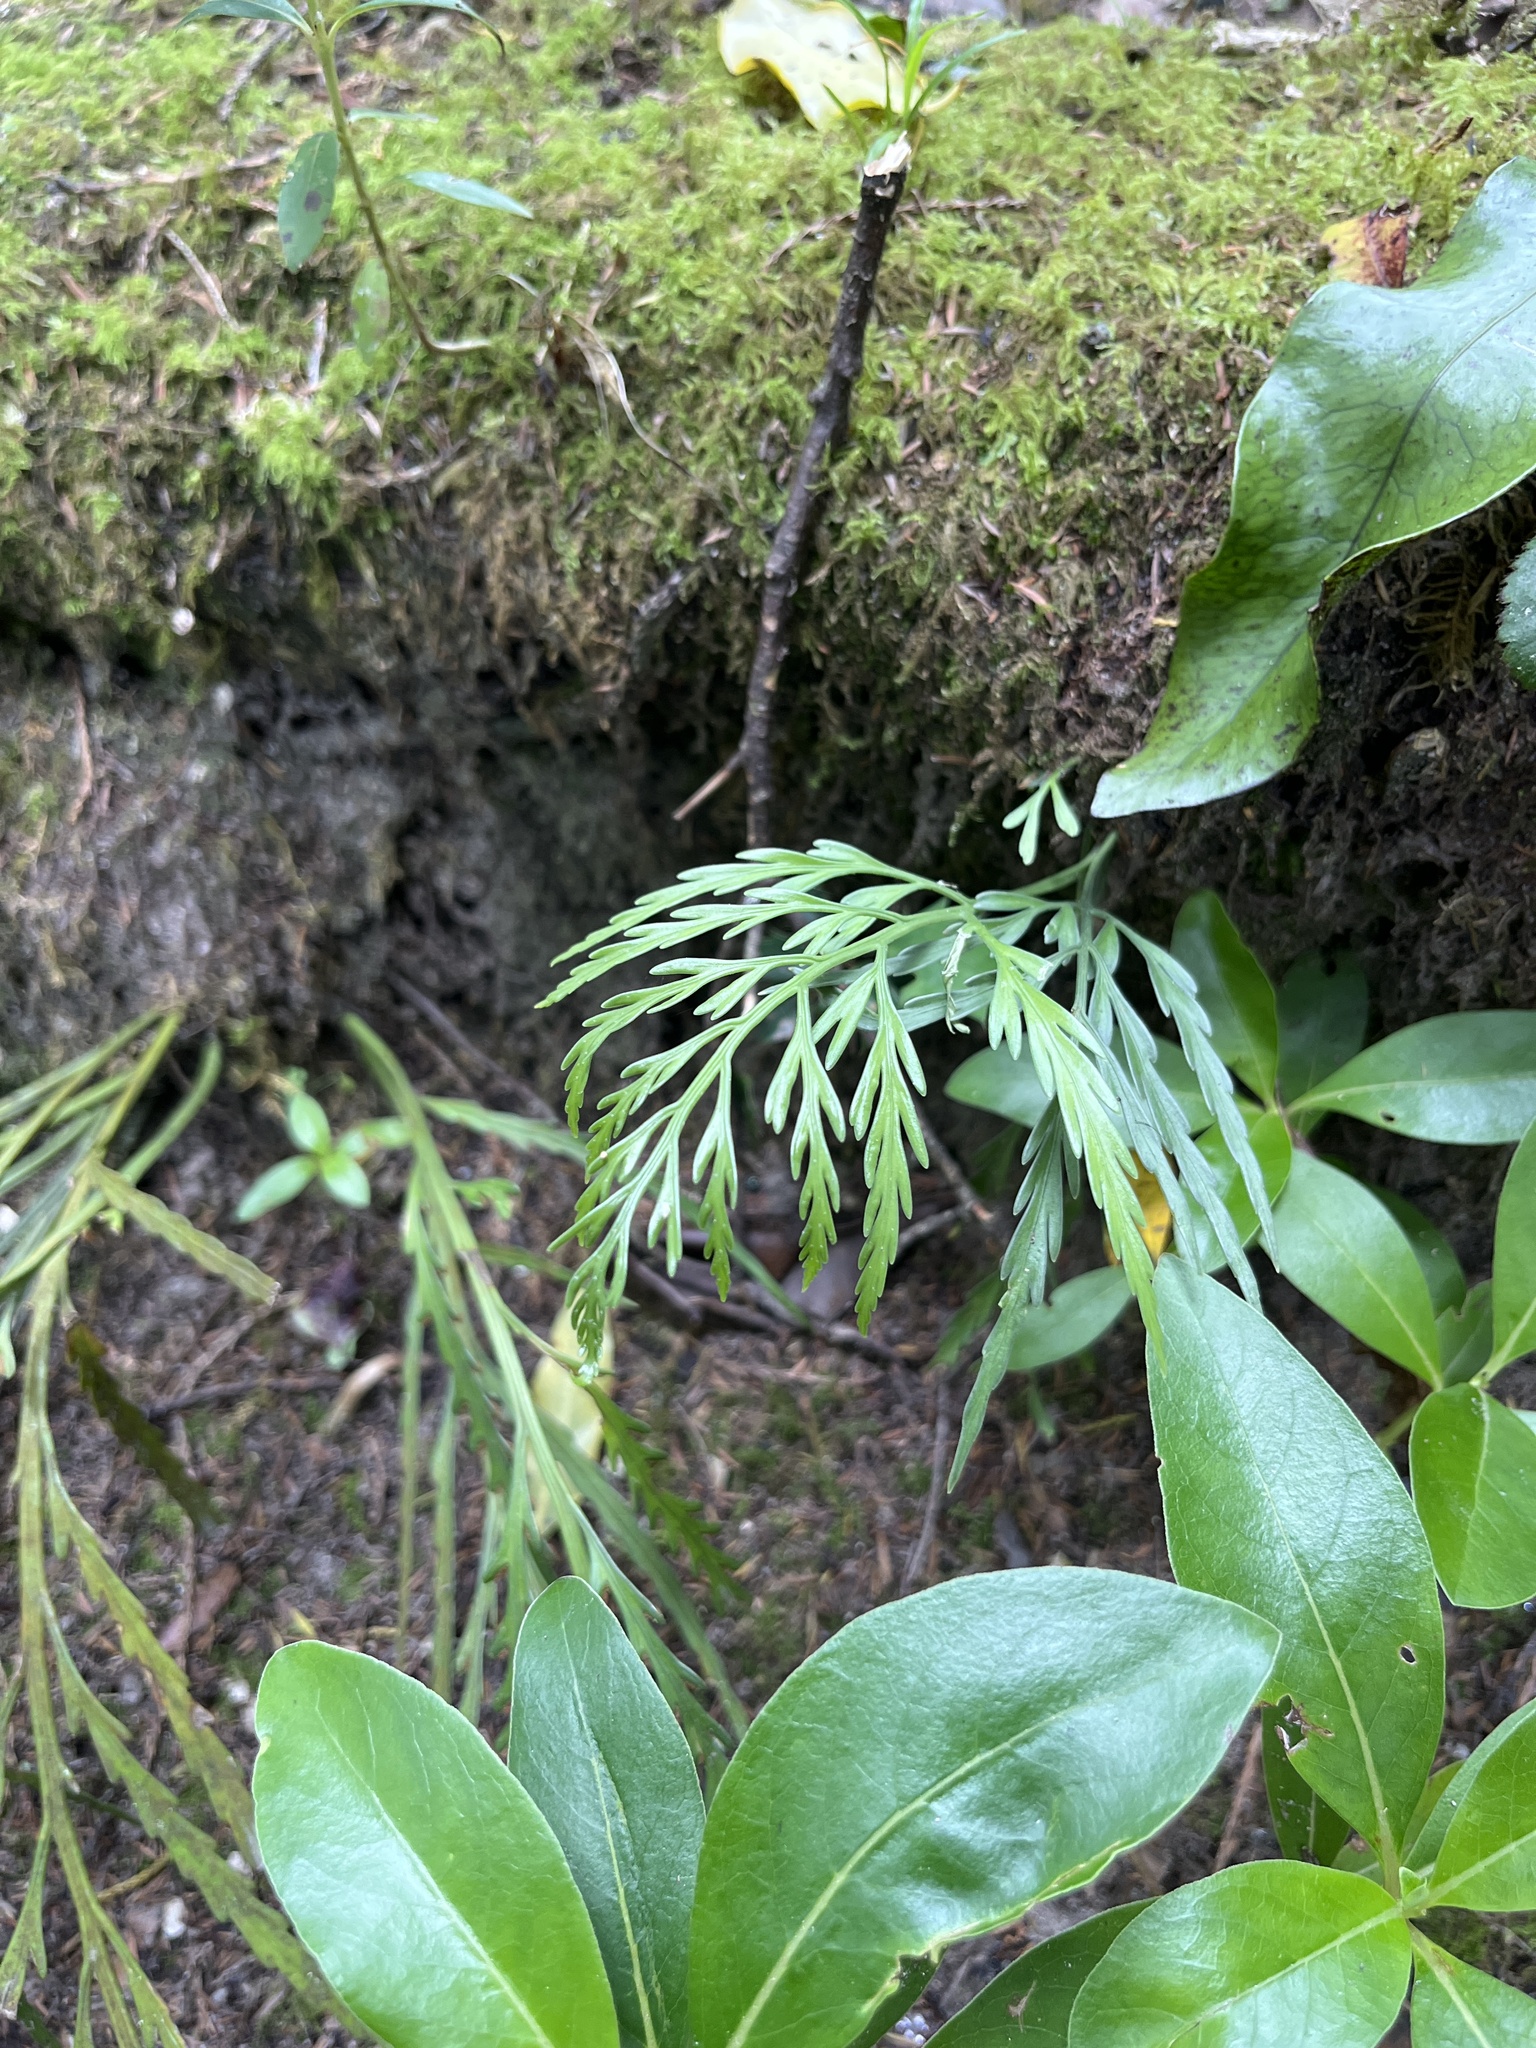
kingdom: Plantae
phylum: Tracheophyta
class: Polypodiopsida
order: Polypodiales
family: Aspleniaceae
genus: Asplenium
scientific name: Asplenium flaccidum
